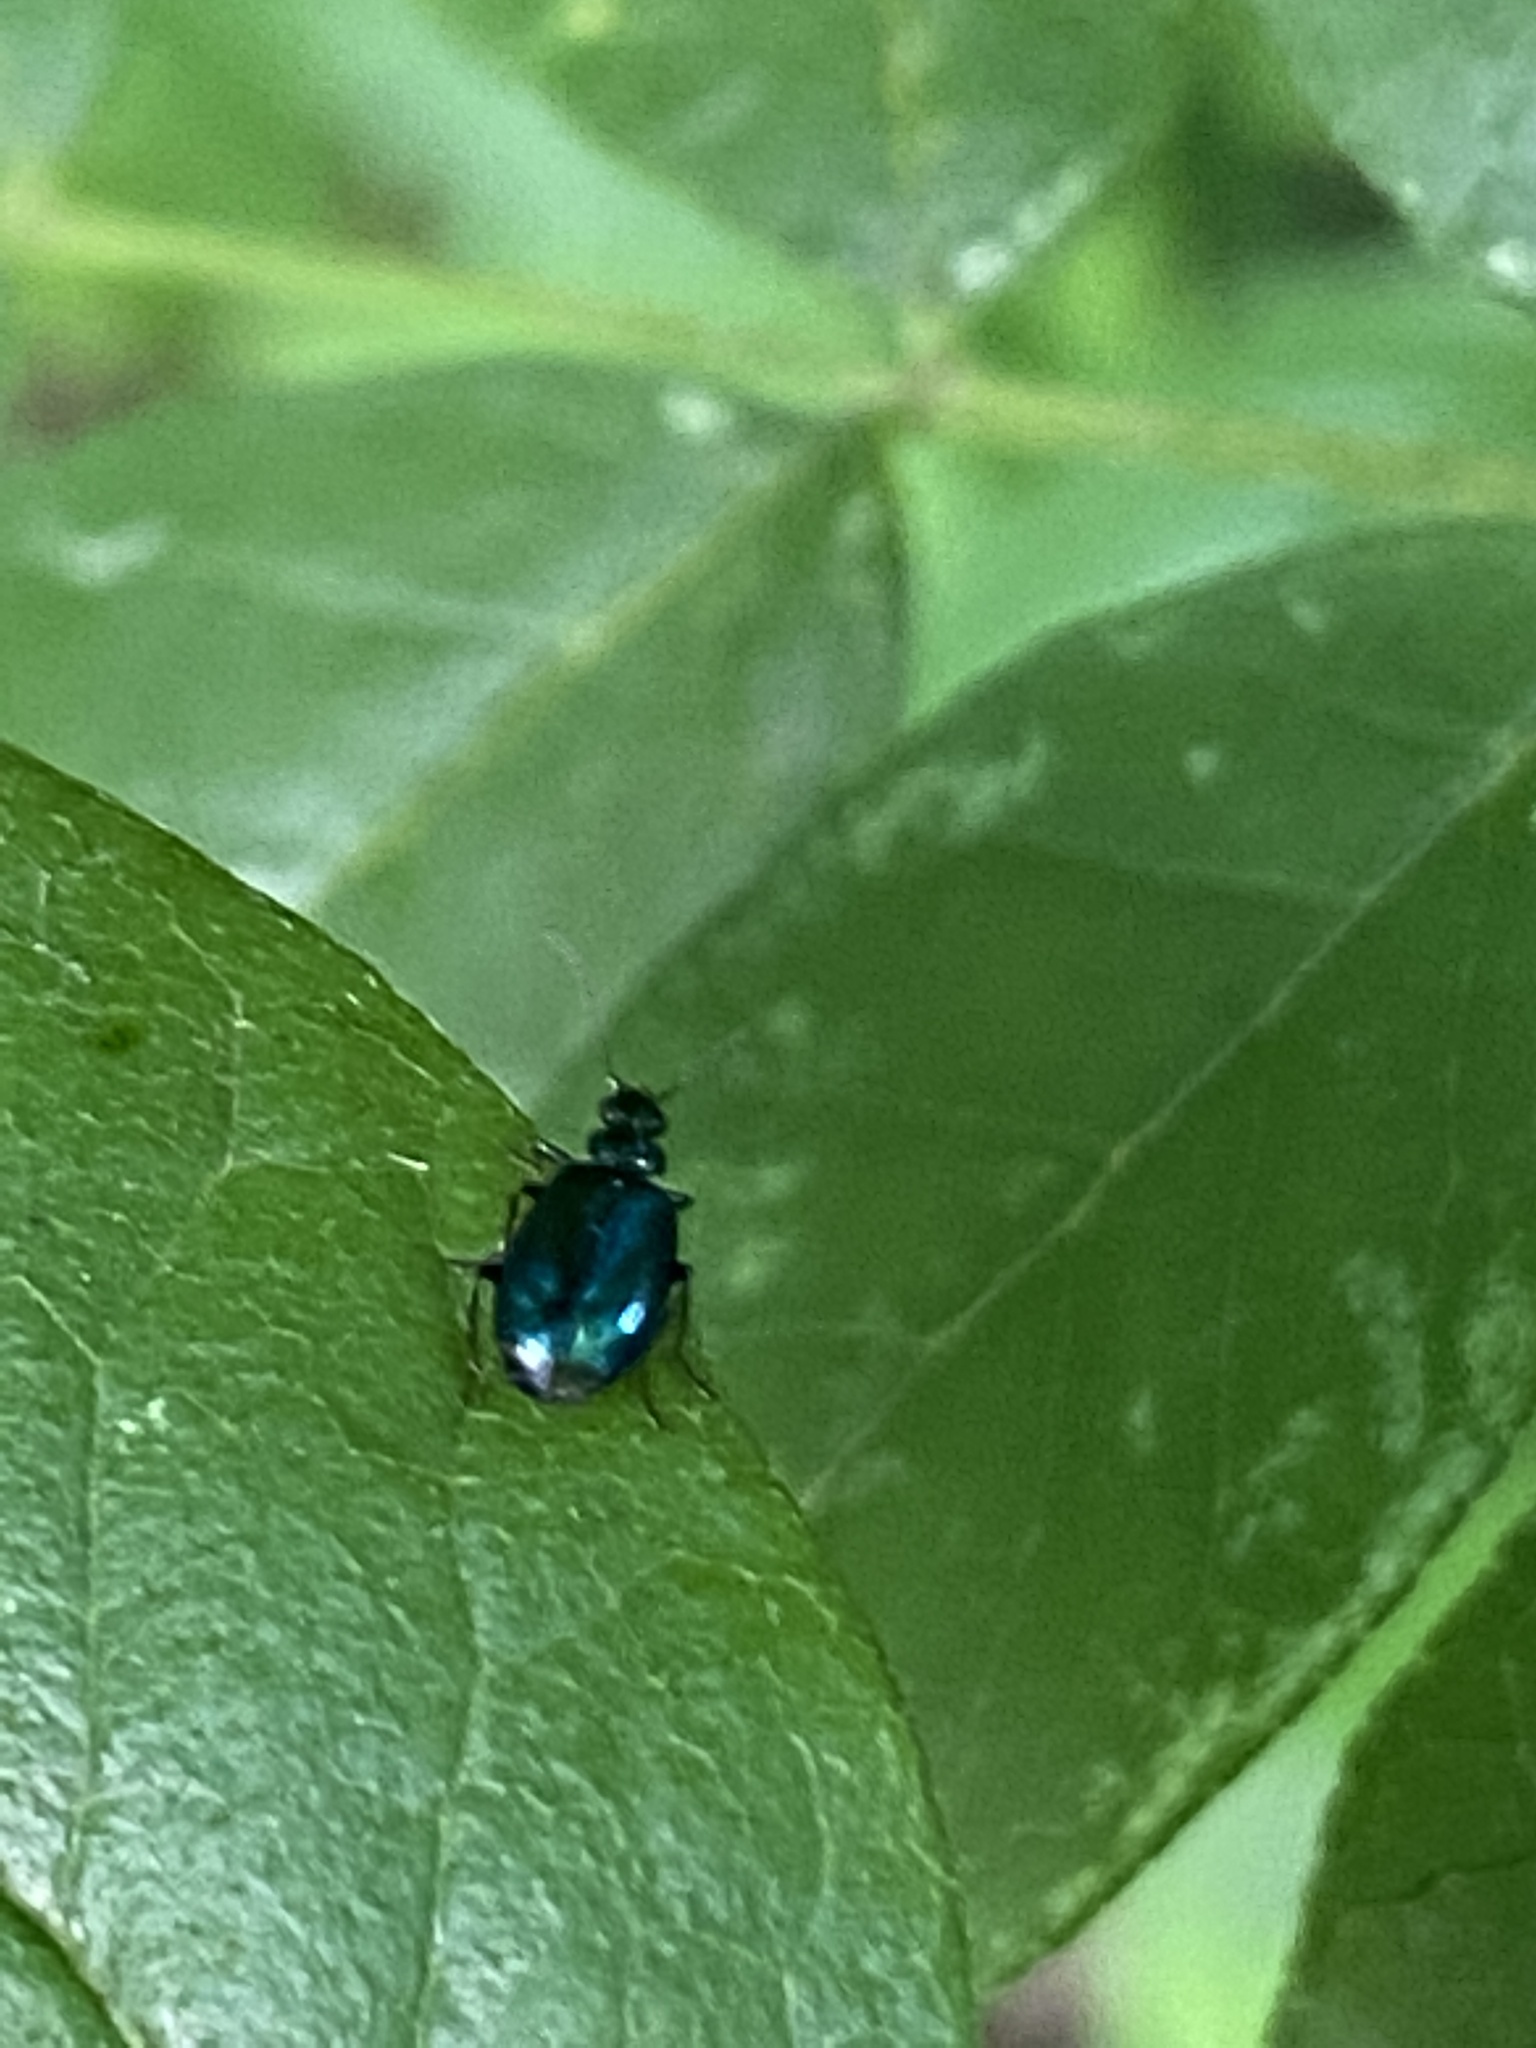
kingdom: Animalia
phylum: Arthropoda
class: Insecta
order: Coleoptera
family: Carabidae
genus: Lebia
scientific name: Lebia viridis
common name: Flower lebia beetle
